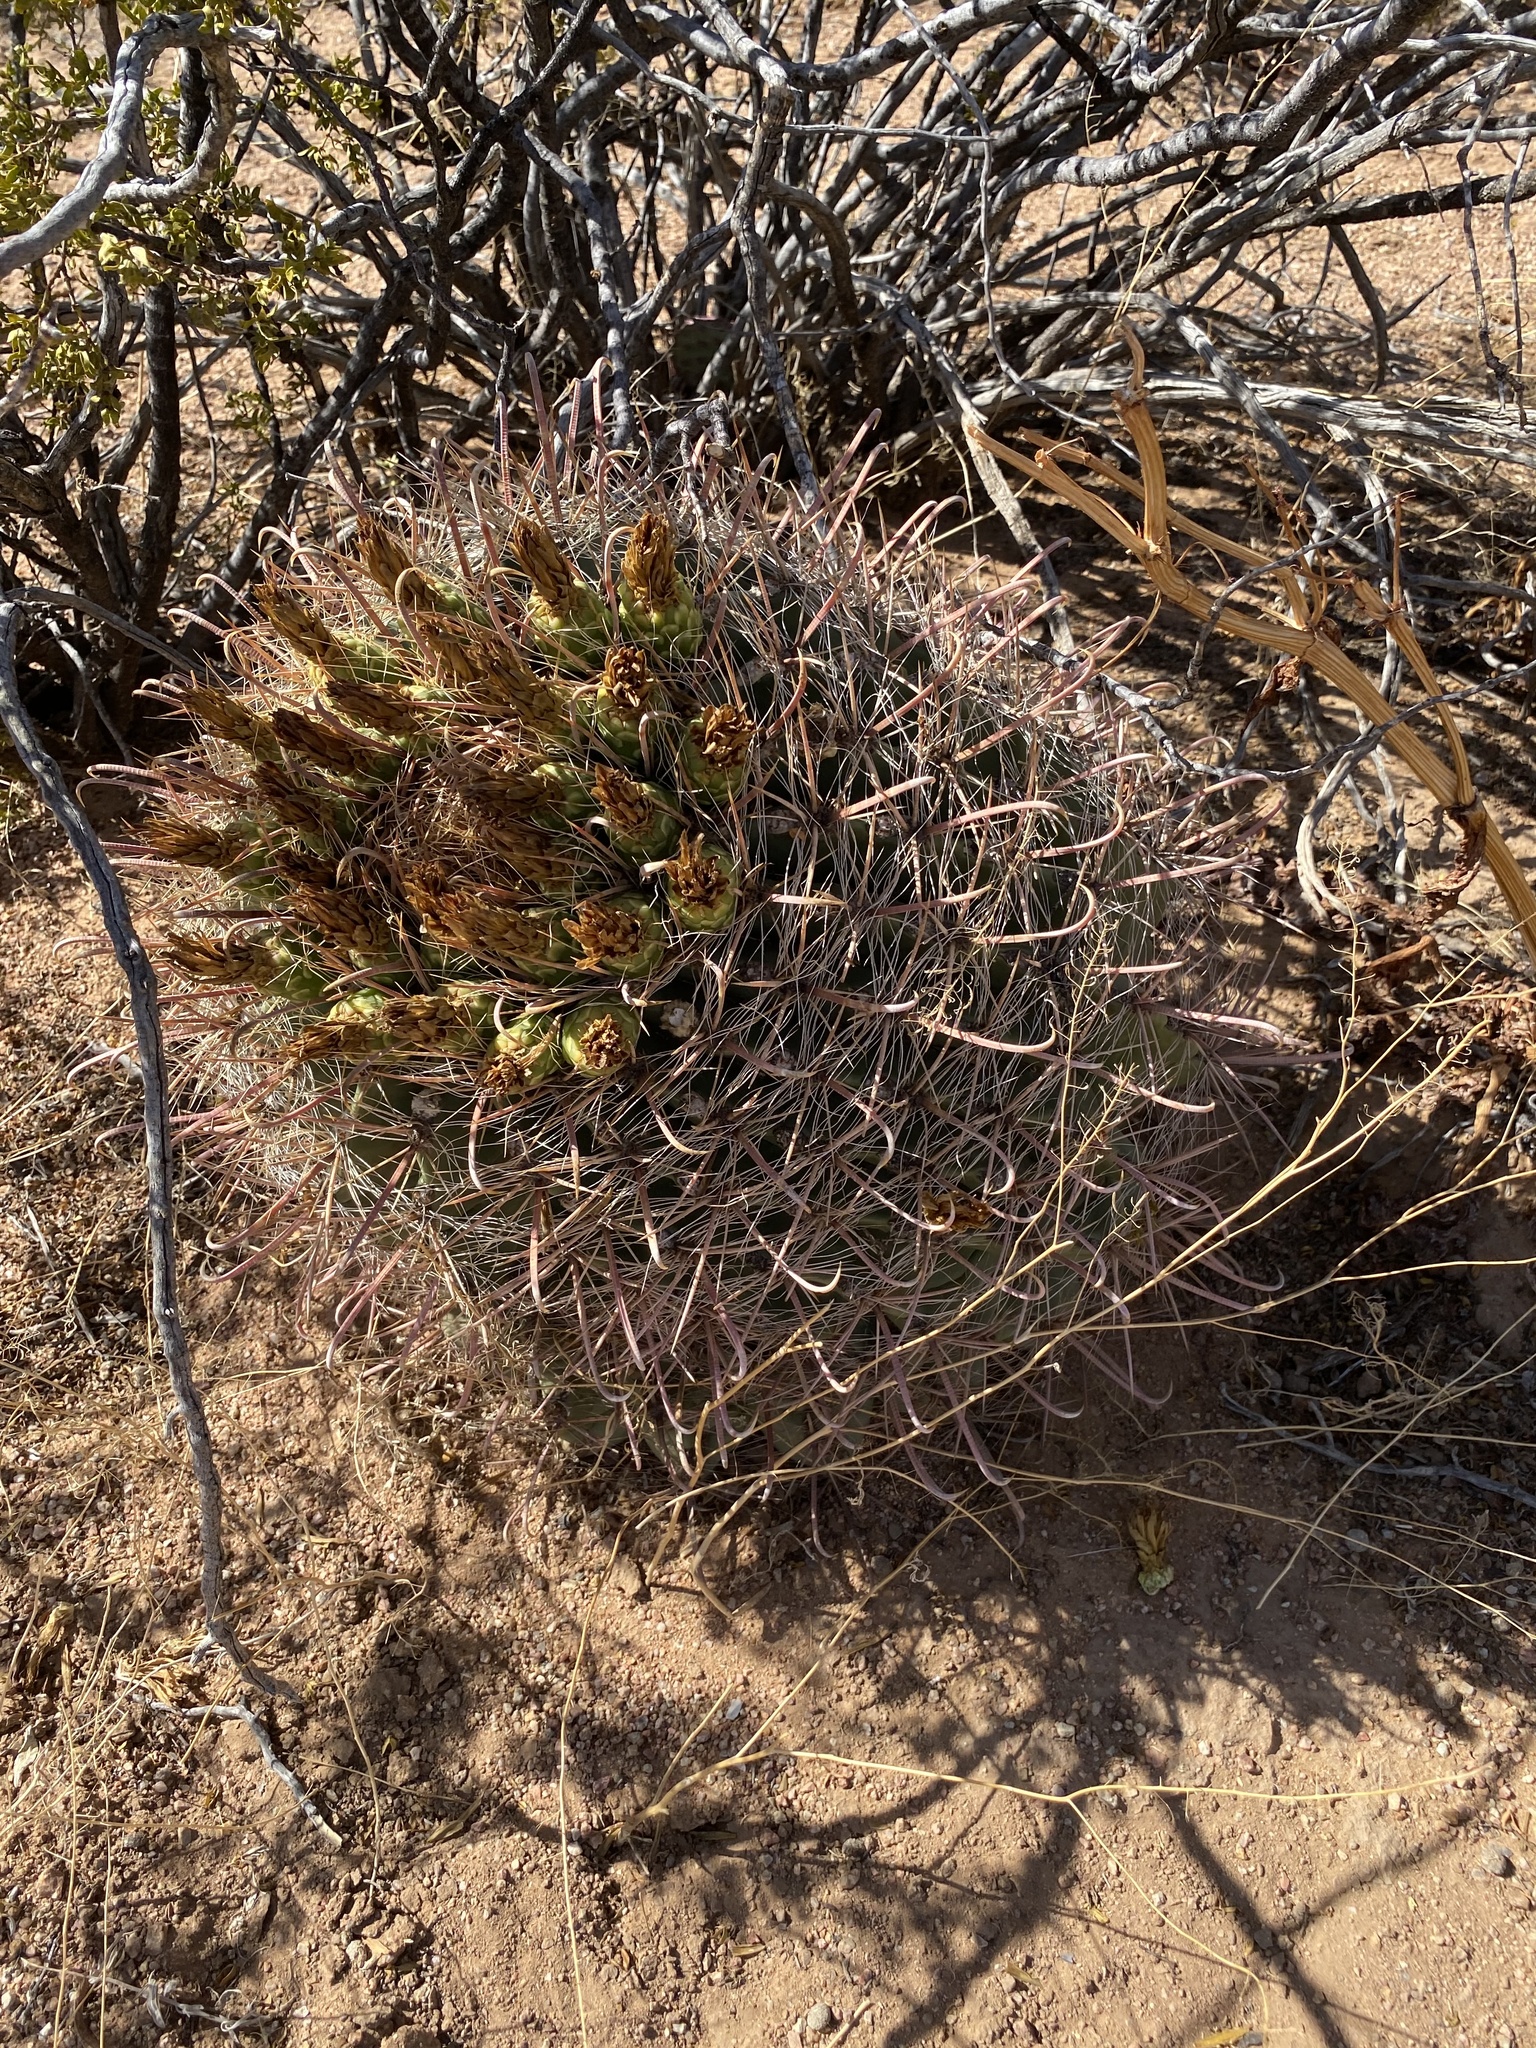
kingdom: Plantae
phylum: Tracheophyta
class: Magnoliopsida
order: Caryophyllales
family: Cactaceae
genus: Ferocactus
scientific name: Ferocactus wislizeni
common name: Candy barrel cactus
